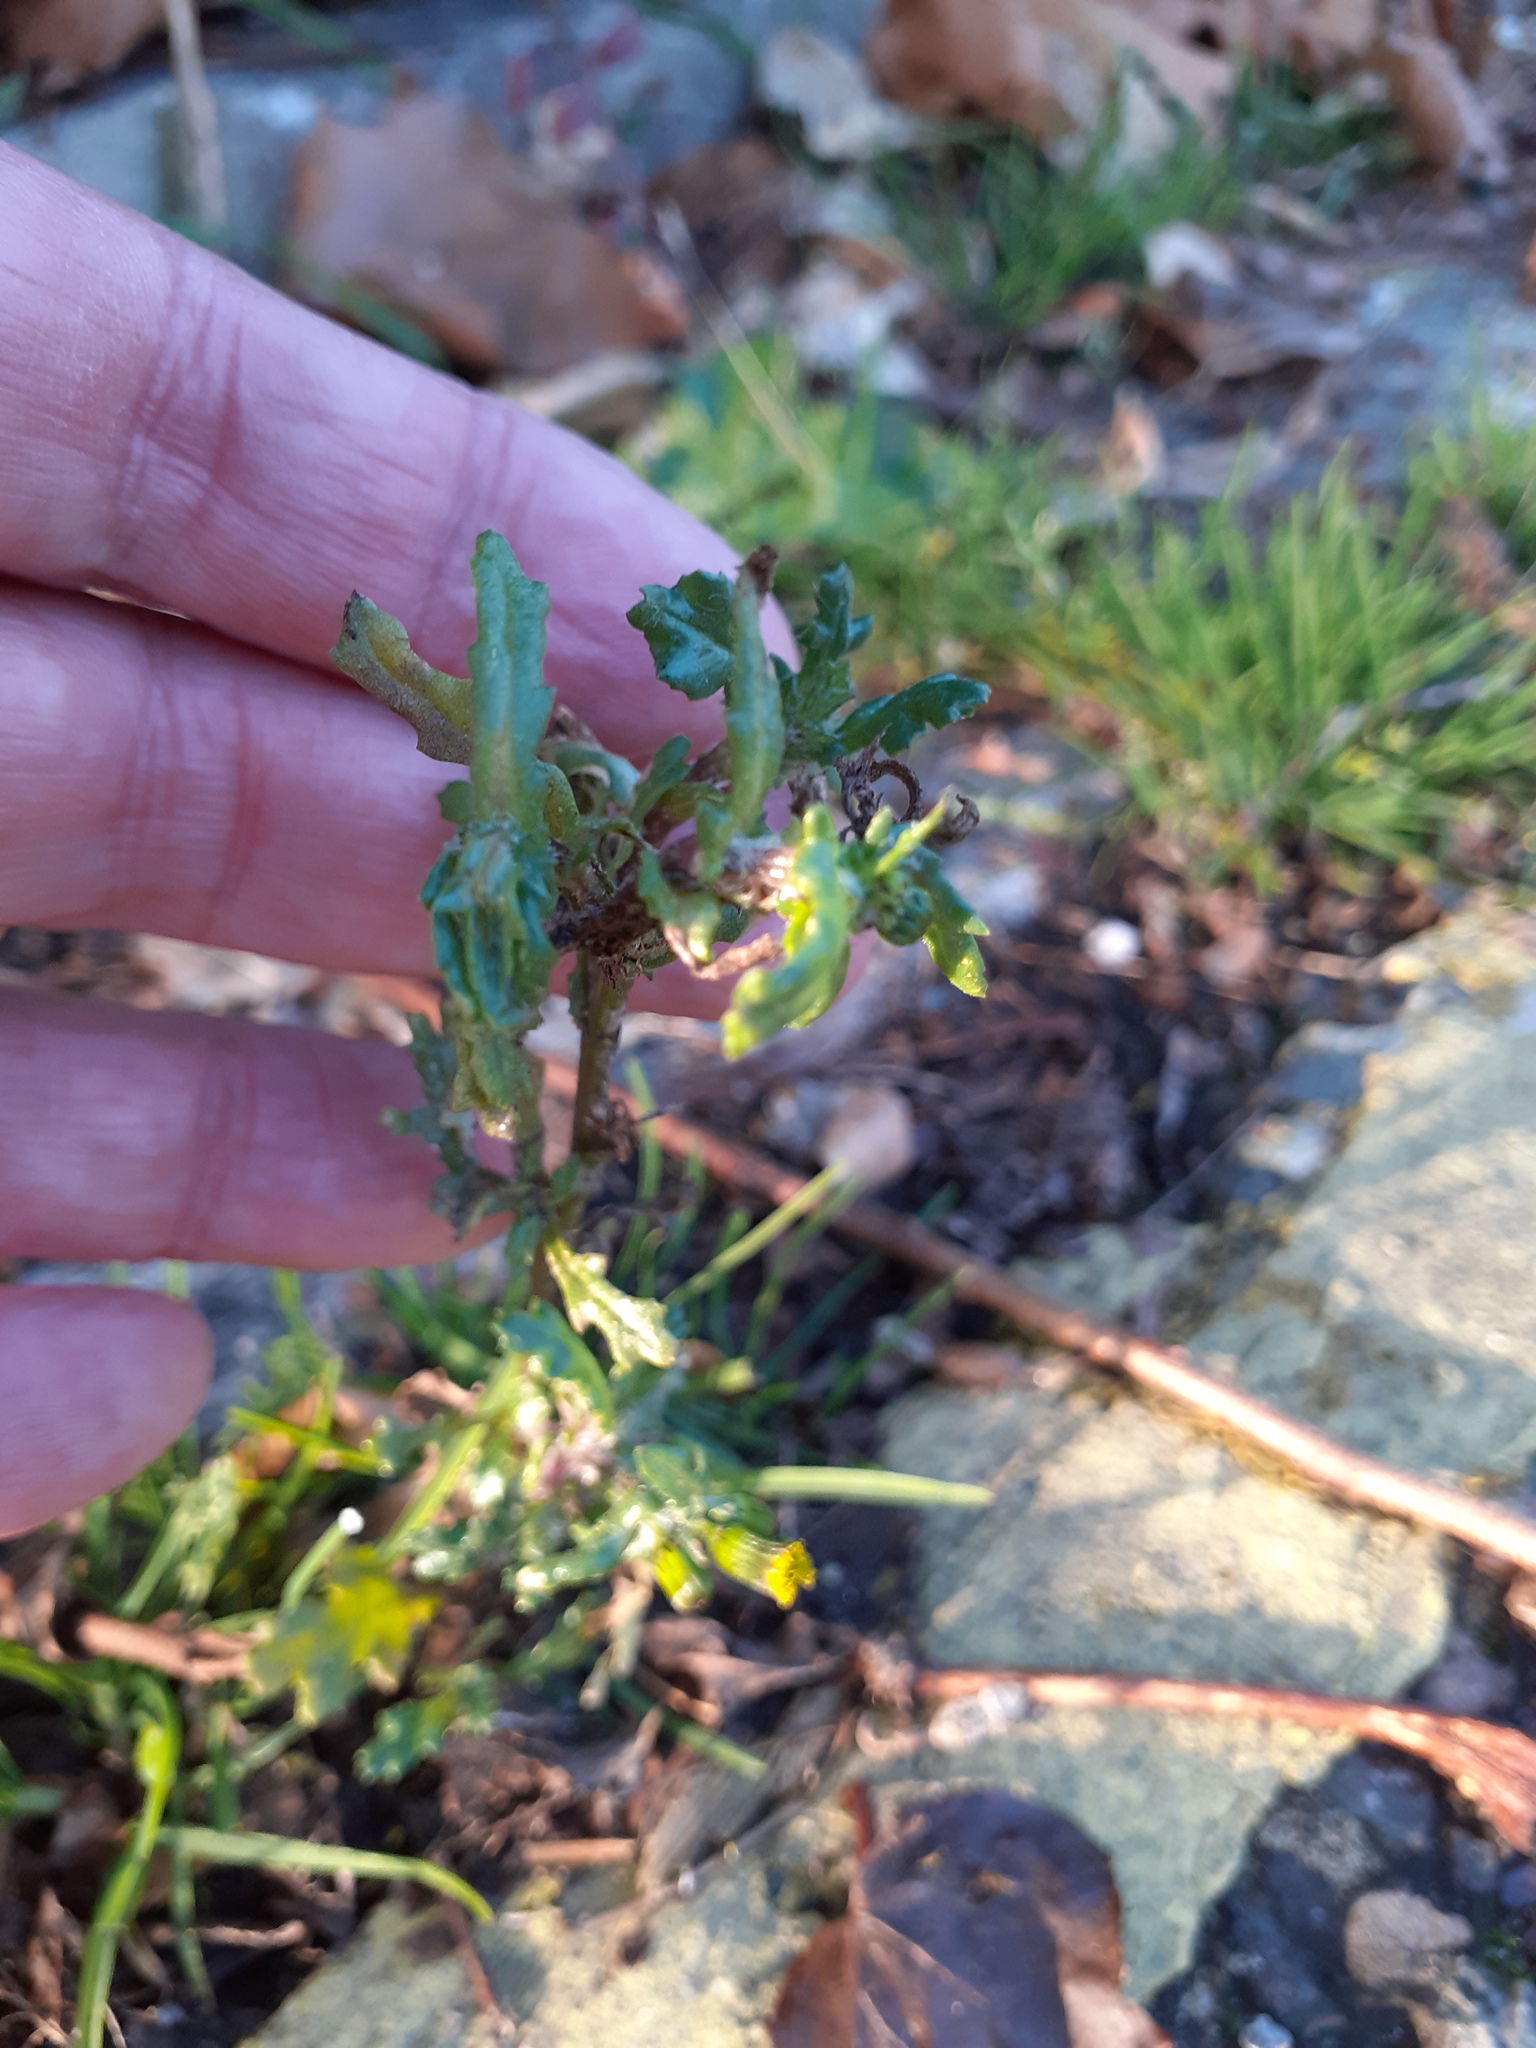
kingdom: Plantae
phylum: Tracheophyta
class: Magnoliopsida
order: Asterales
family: Asteraceae
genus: Senecio
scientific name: Senecio vulgaris
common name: Old-man-in-the-spring
